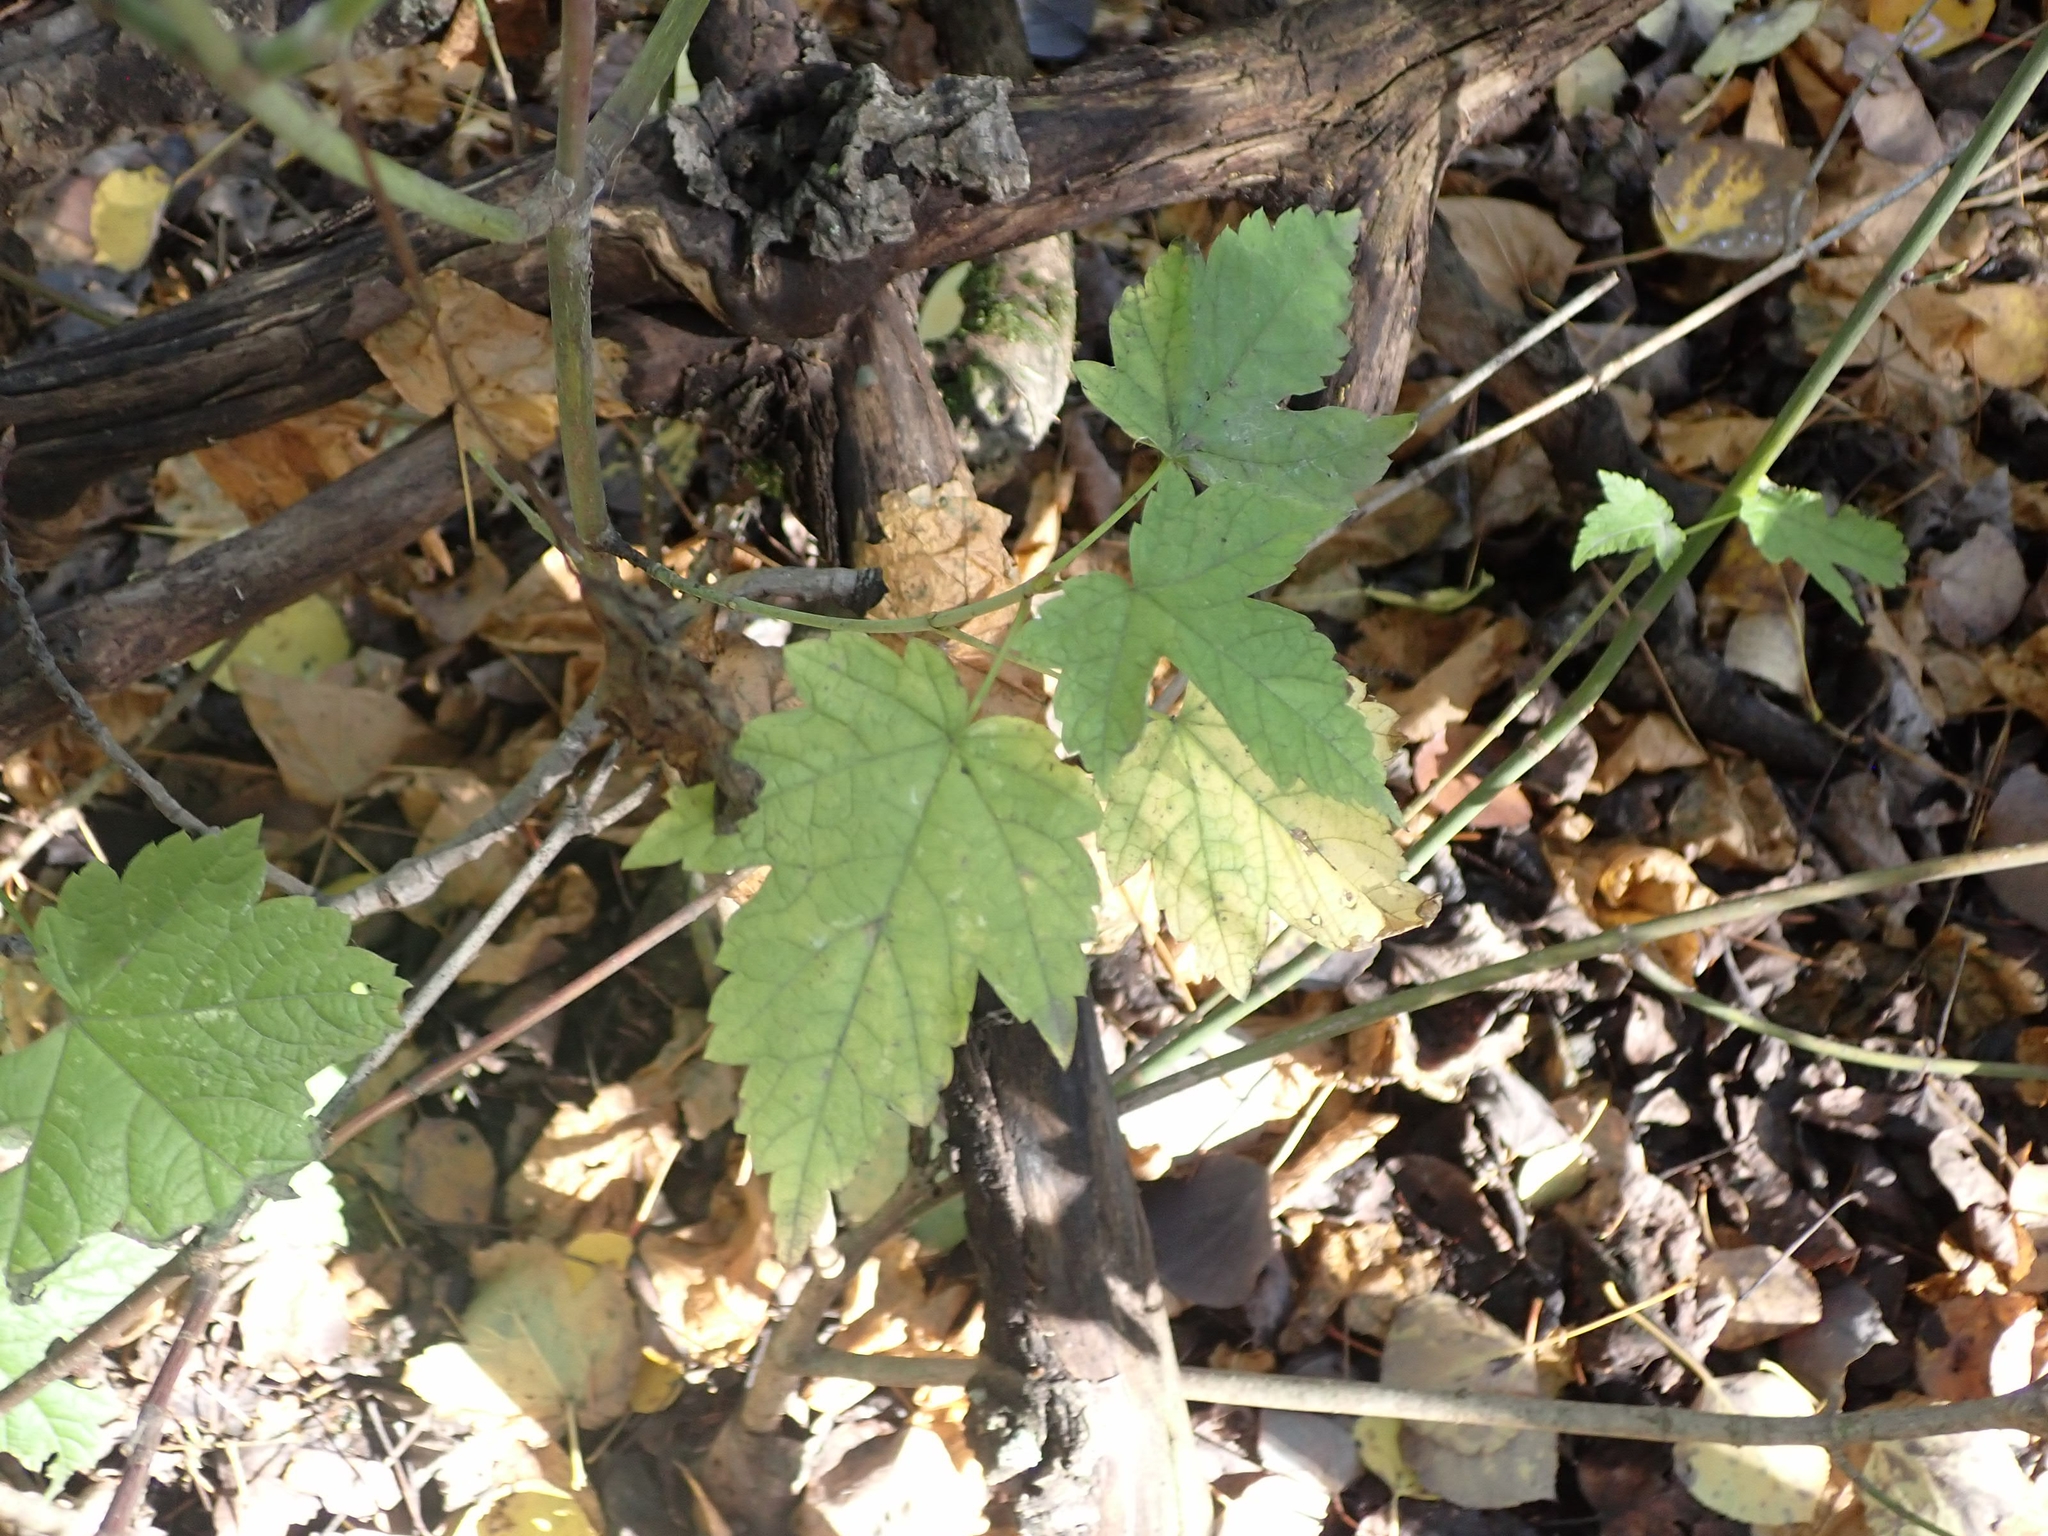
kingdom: Plantae
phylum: Tracheophyta
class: Magnoliopsida
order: Sapindales
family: Sapindaceae
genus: Acer
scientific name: Acer spicatum
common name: Mountain maple
